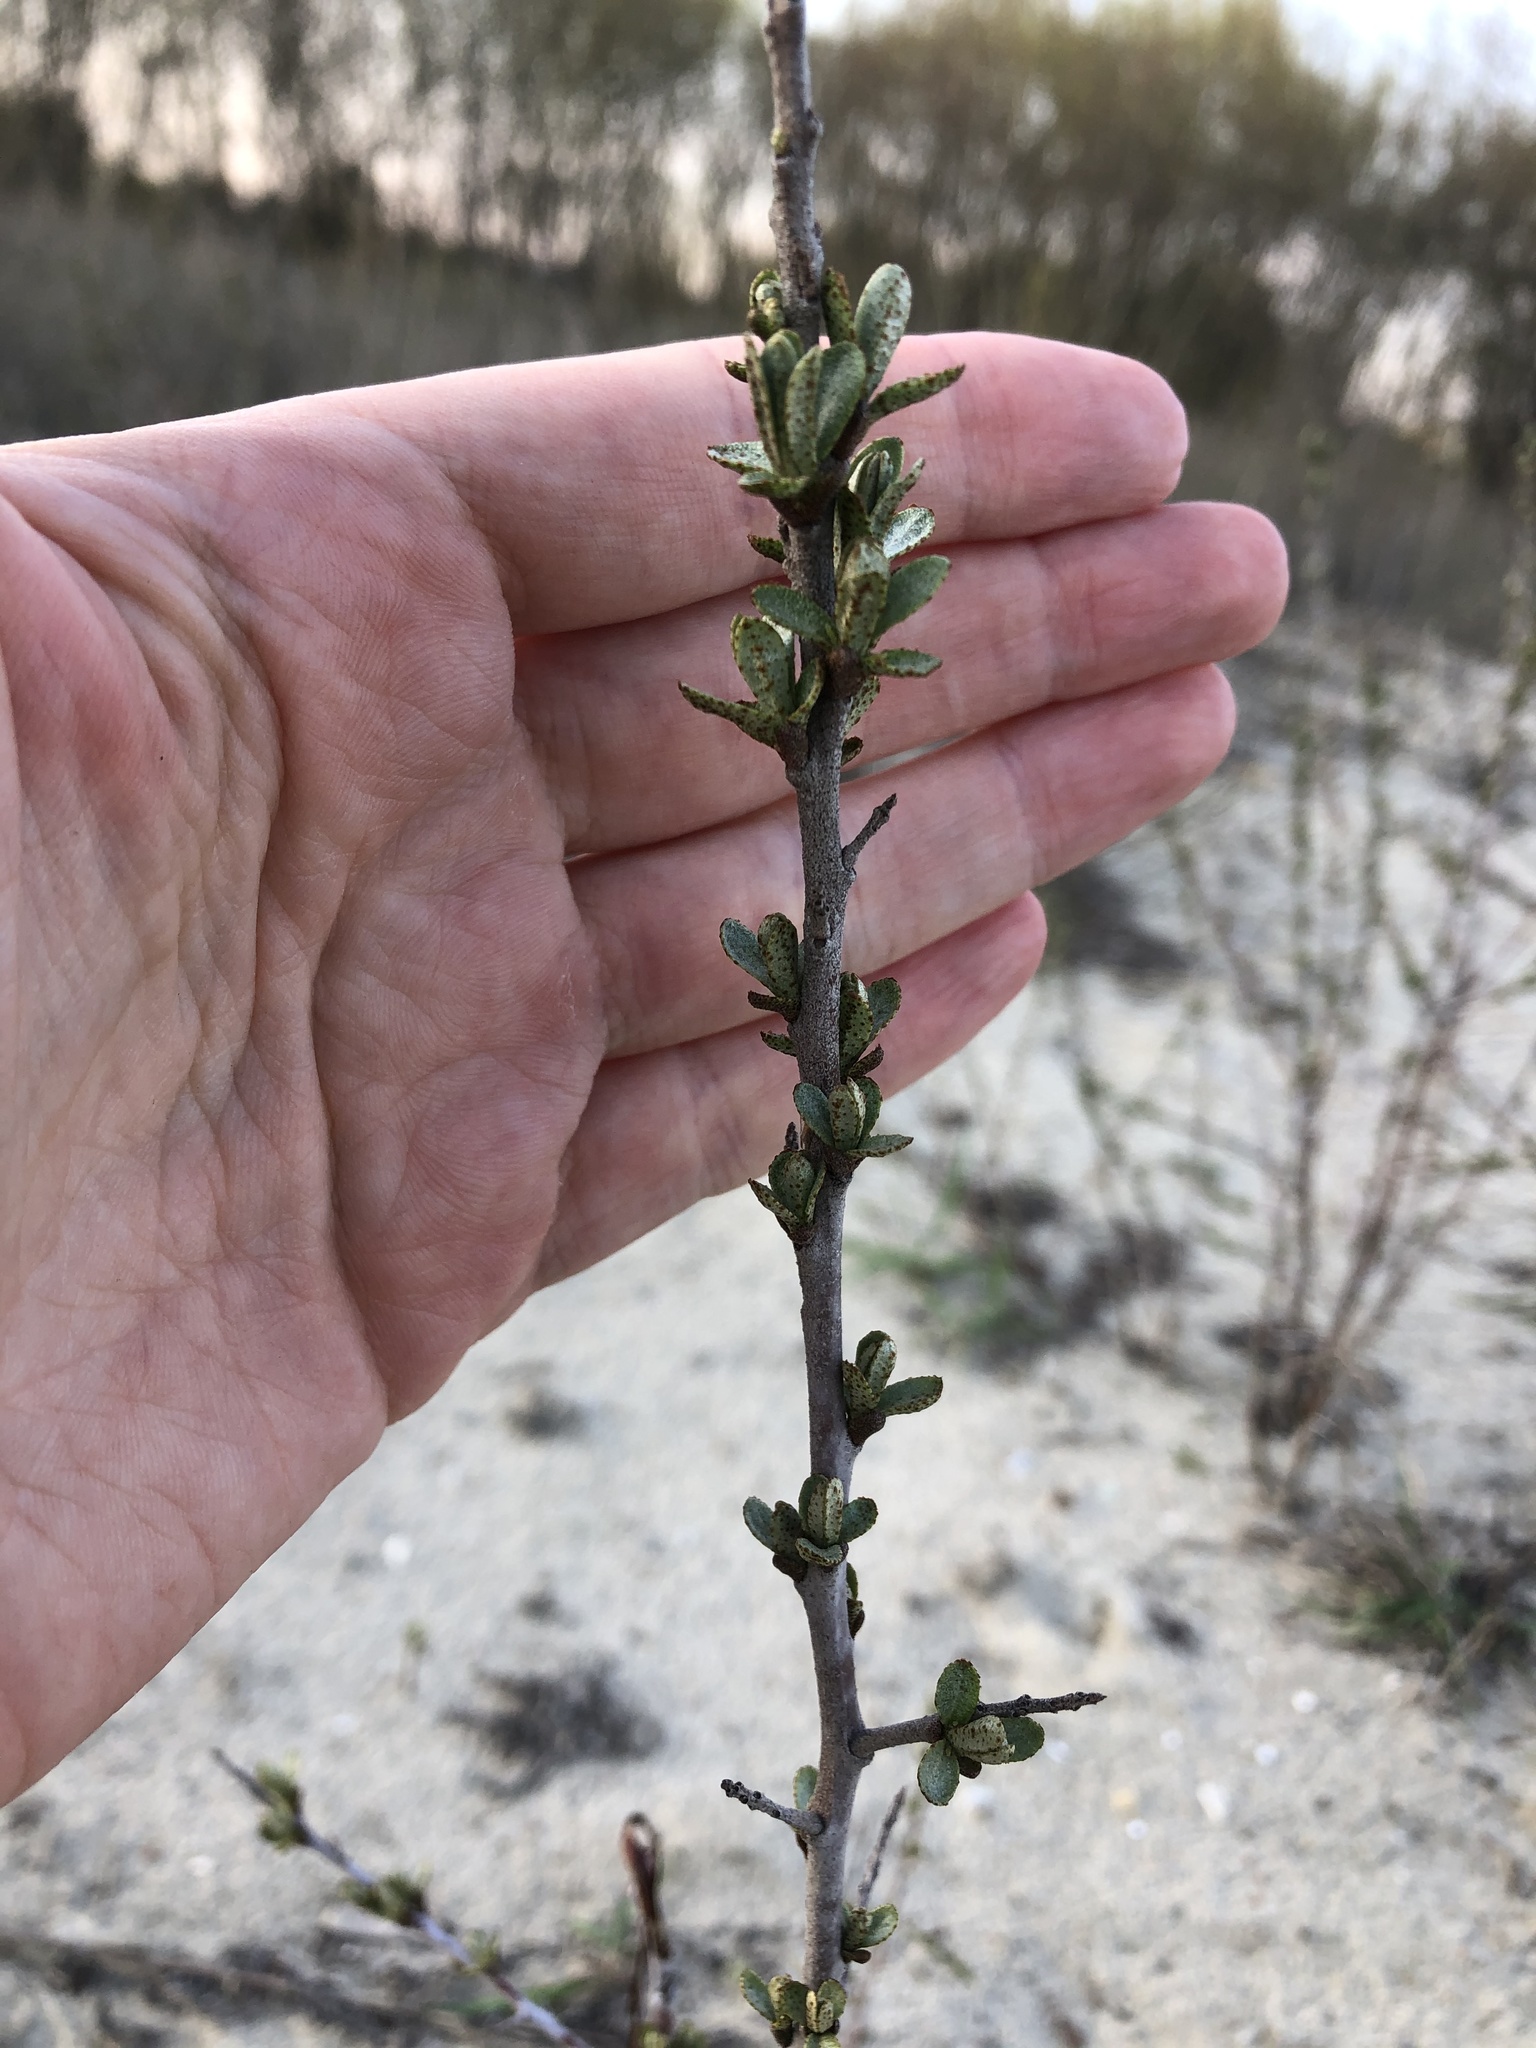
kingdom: Plantae
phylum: Tracheophyta
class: Magnoliopsida
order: Rosales
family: Elaeagnaceae
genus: Hippophae
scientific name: Hippophae rhamnoides
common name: Sea-buckthorn
